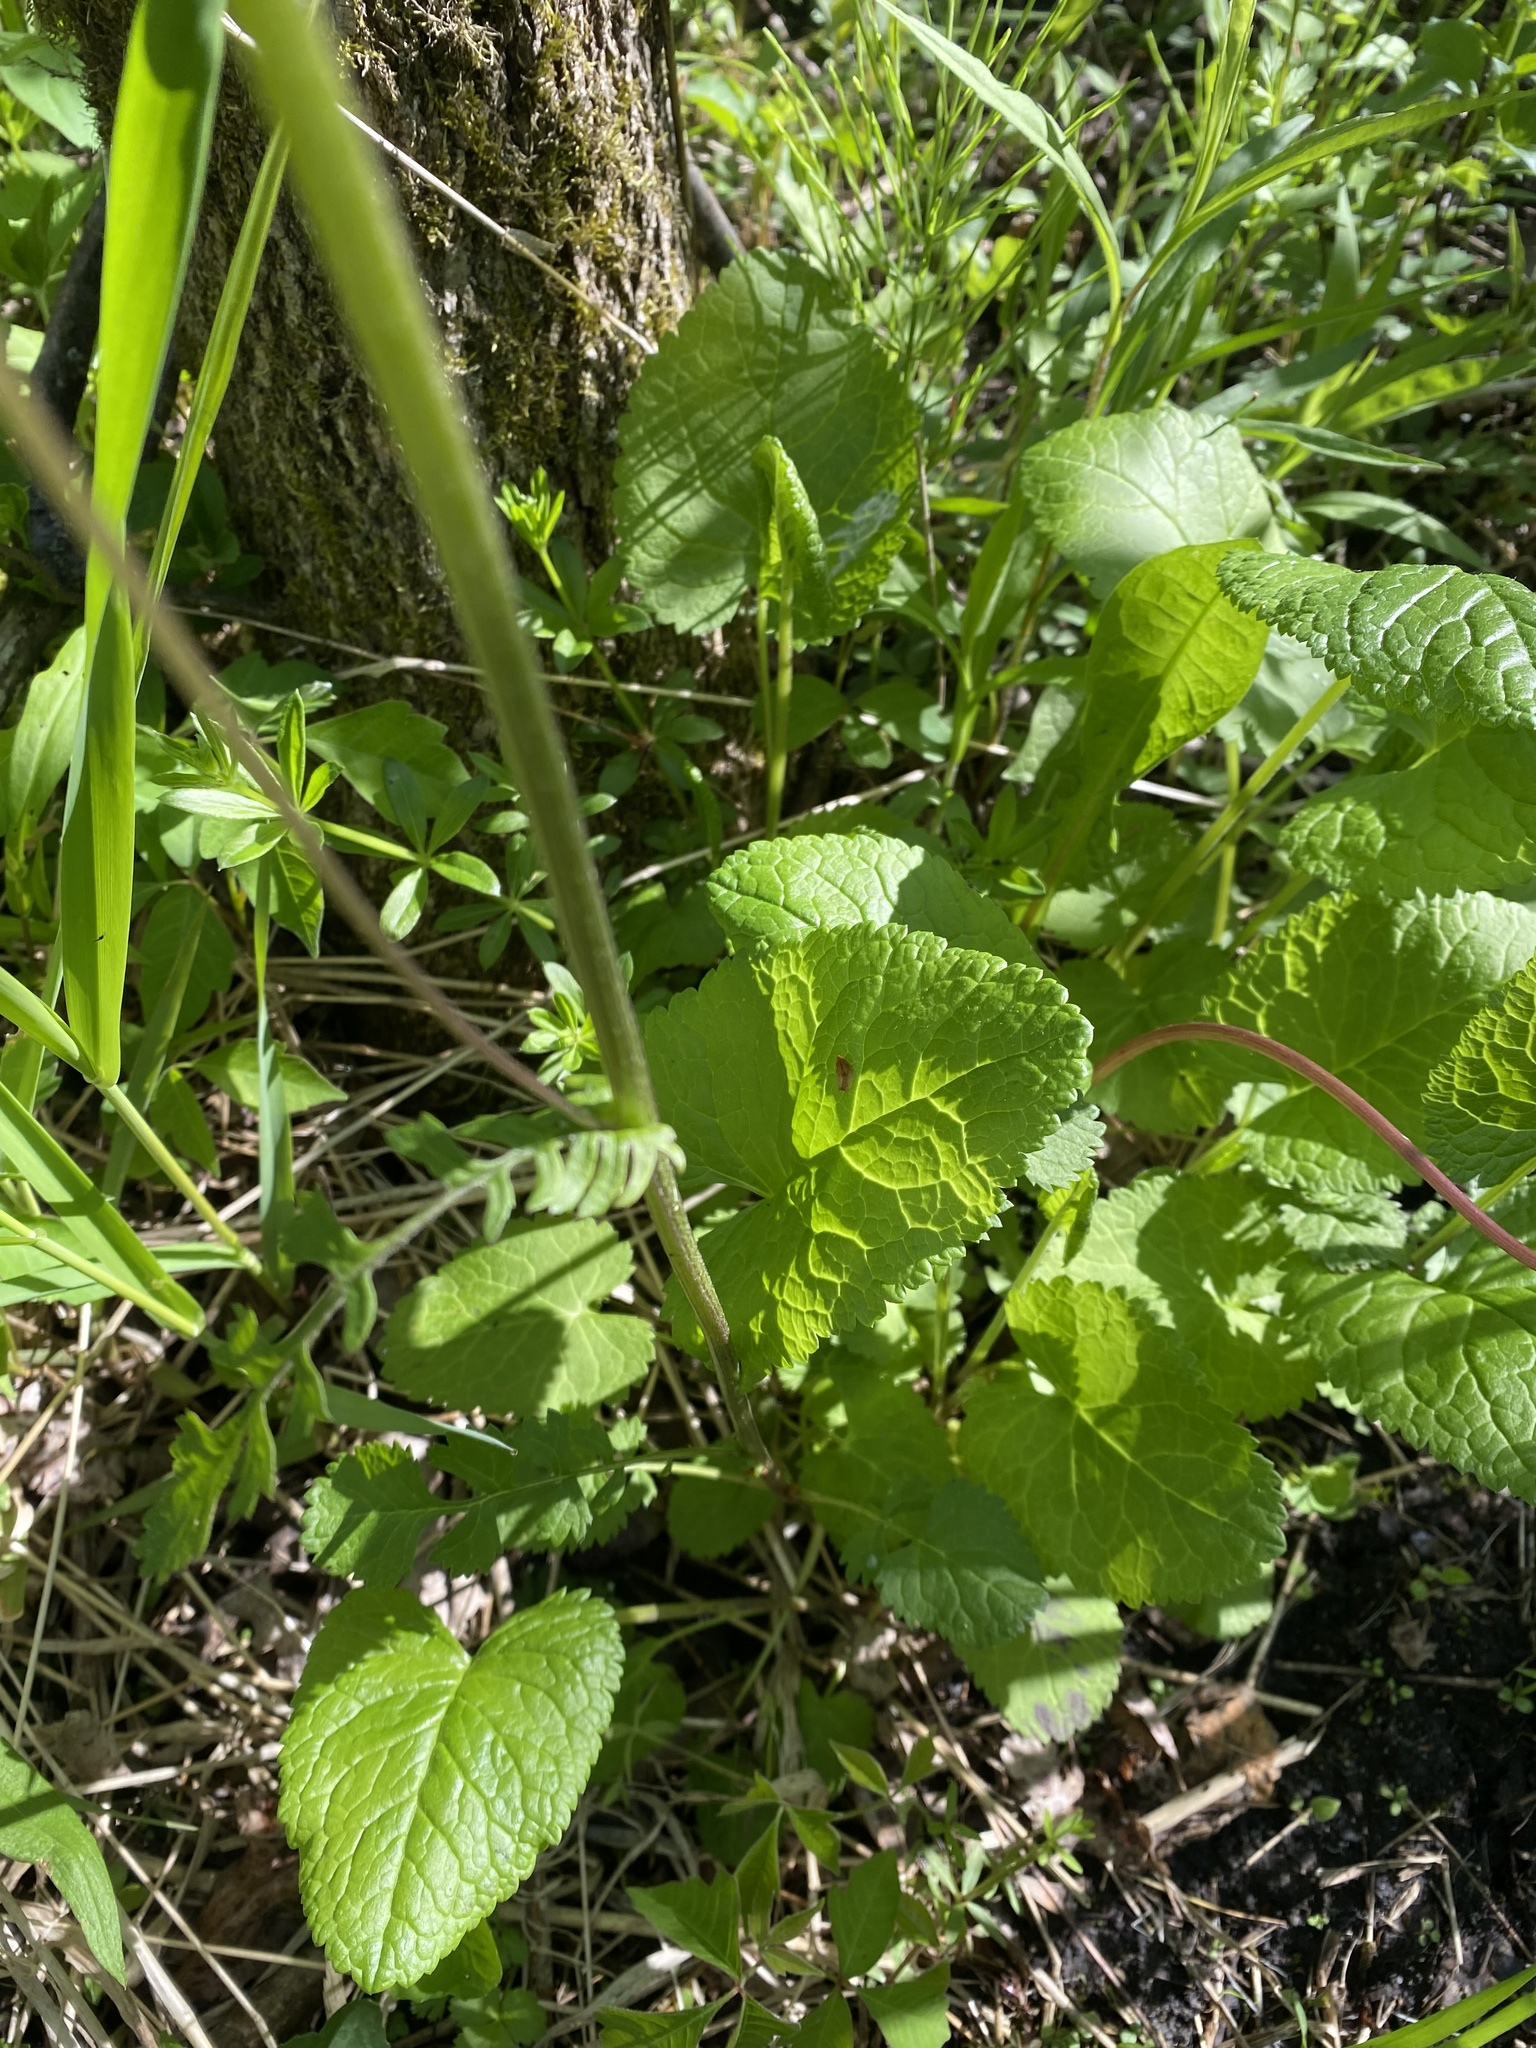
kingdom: Plantae
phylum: Tracheophyta
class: Magnoliopsida
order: Asterales
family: Asteraceae
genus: Packera
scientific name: Packera aurea
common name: Golden groundsel
